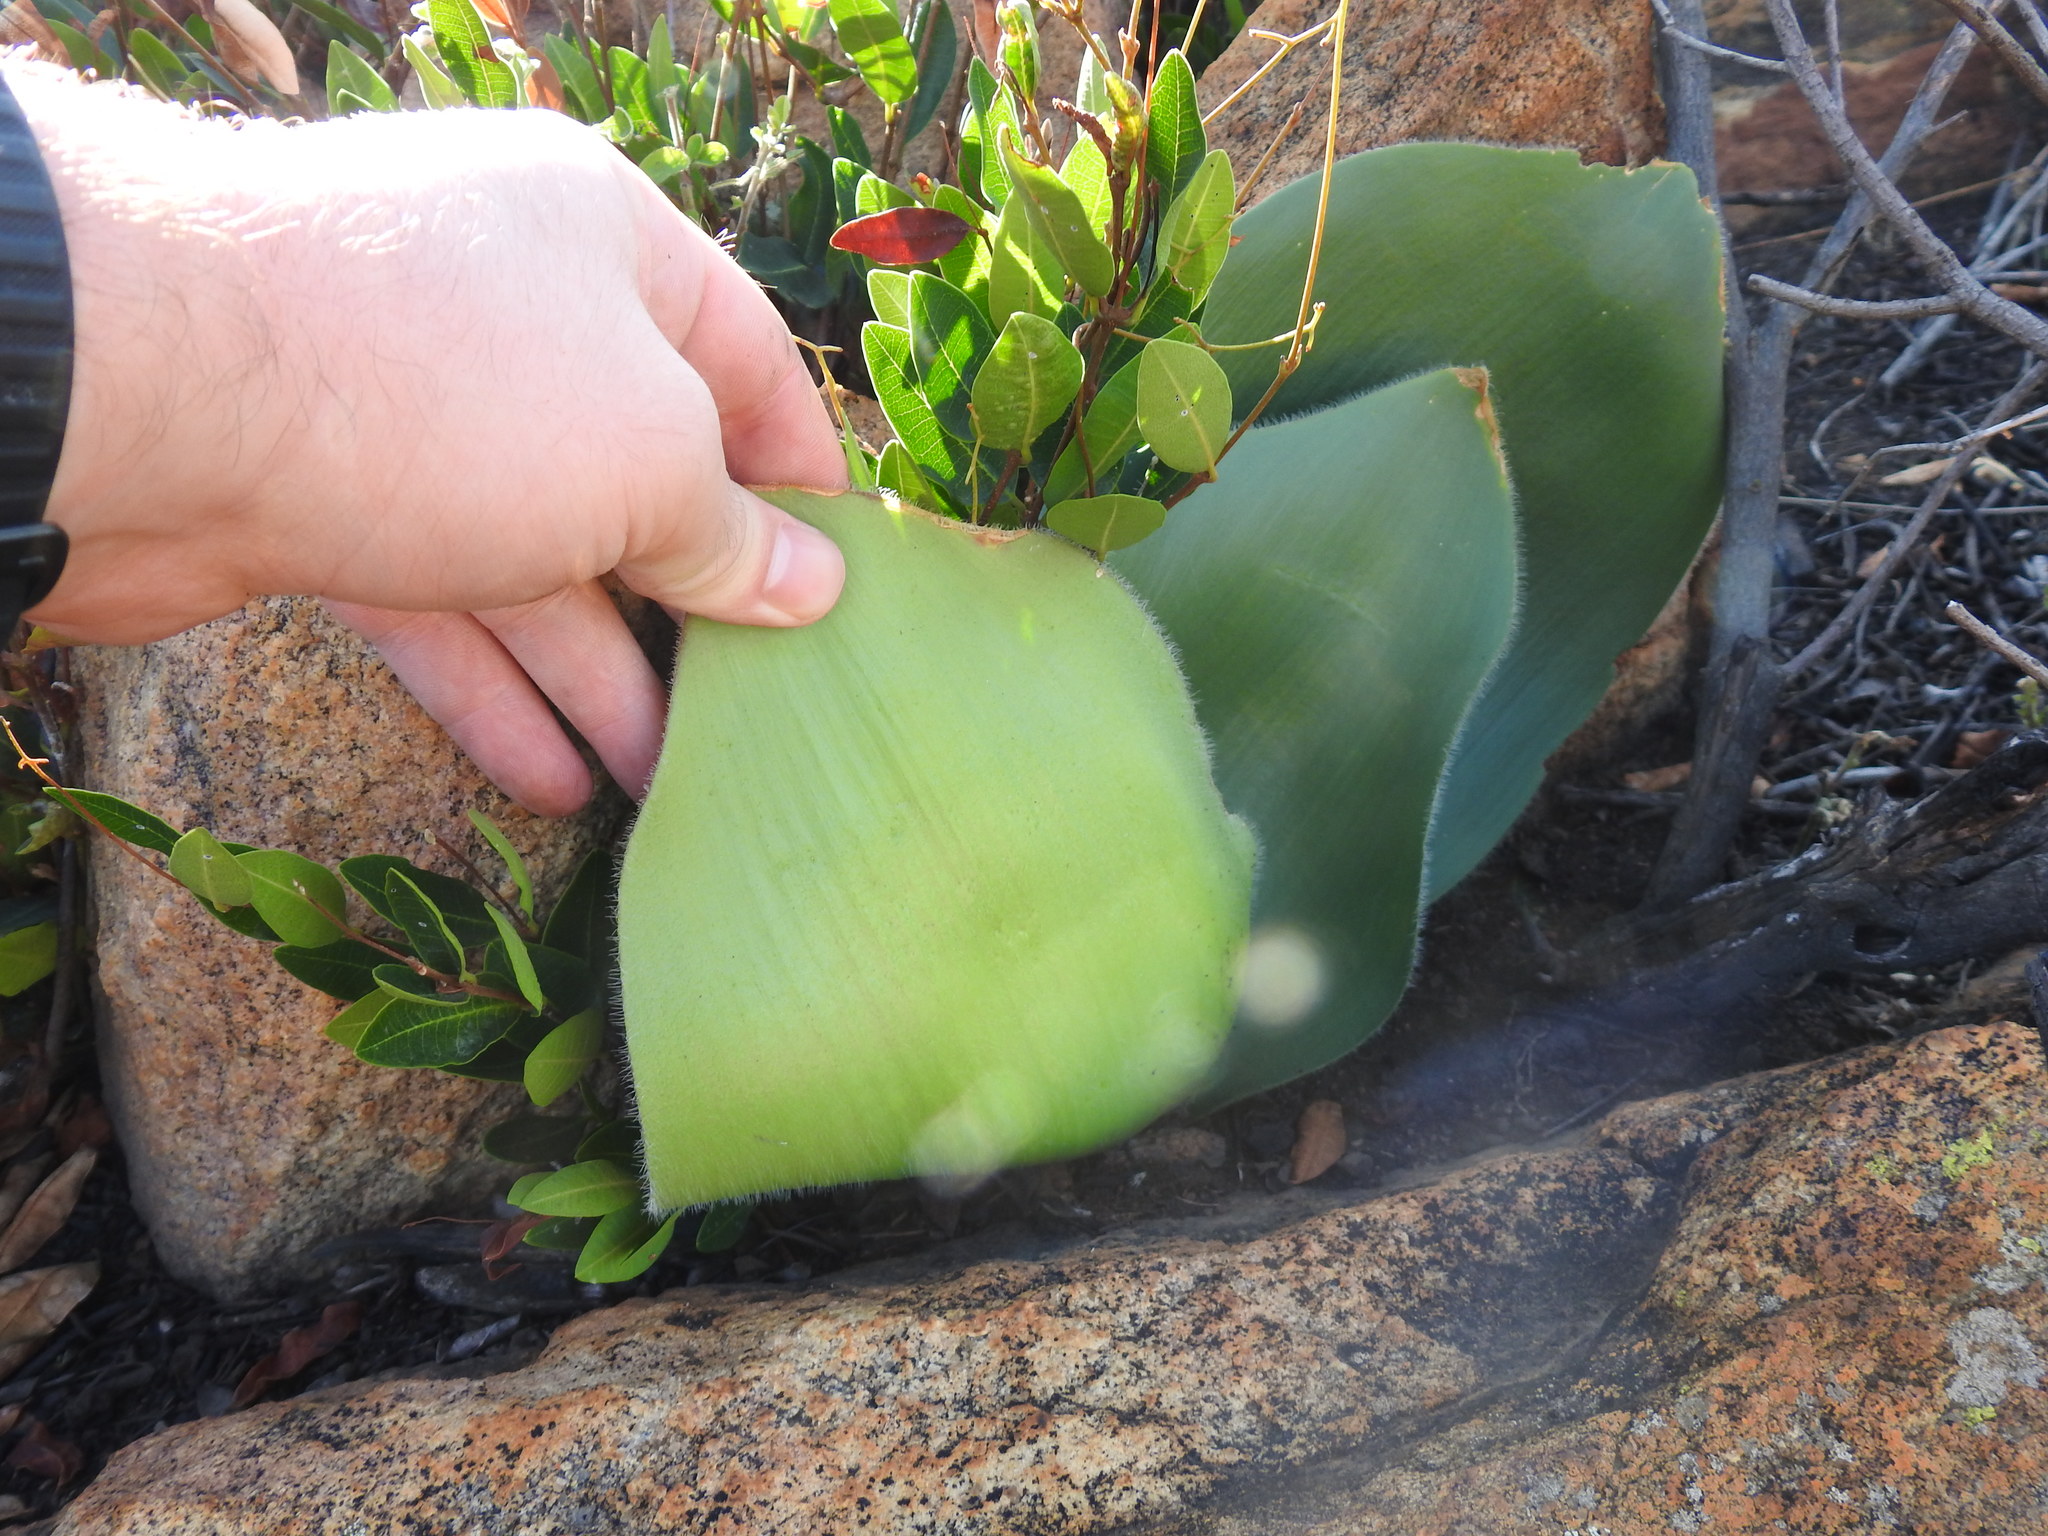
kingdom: Plantae
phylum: Tracheophyta
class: Liliopsida
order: Asparagales
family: Amaryllidaceae
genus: Haemanthus
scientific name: Haemanthus humilis
